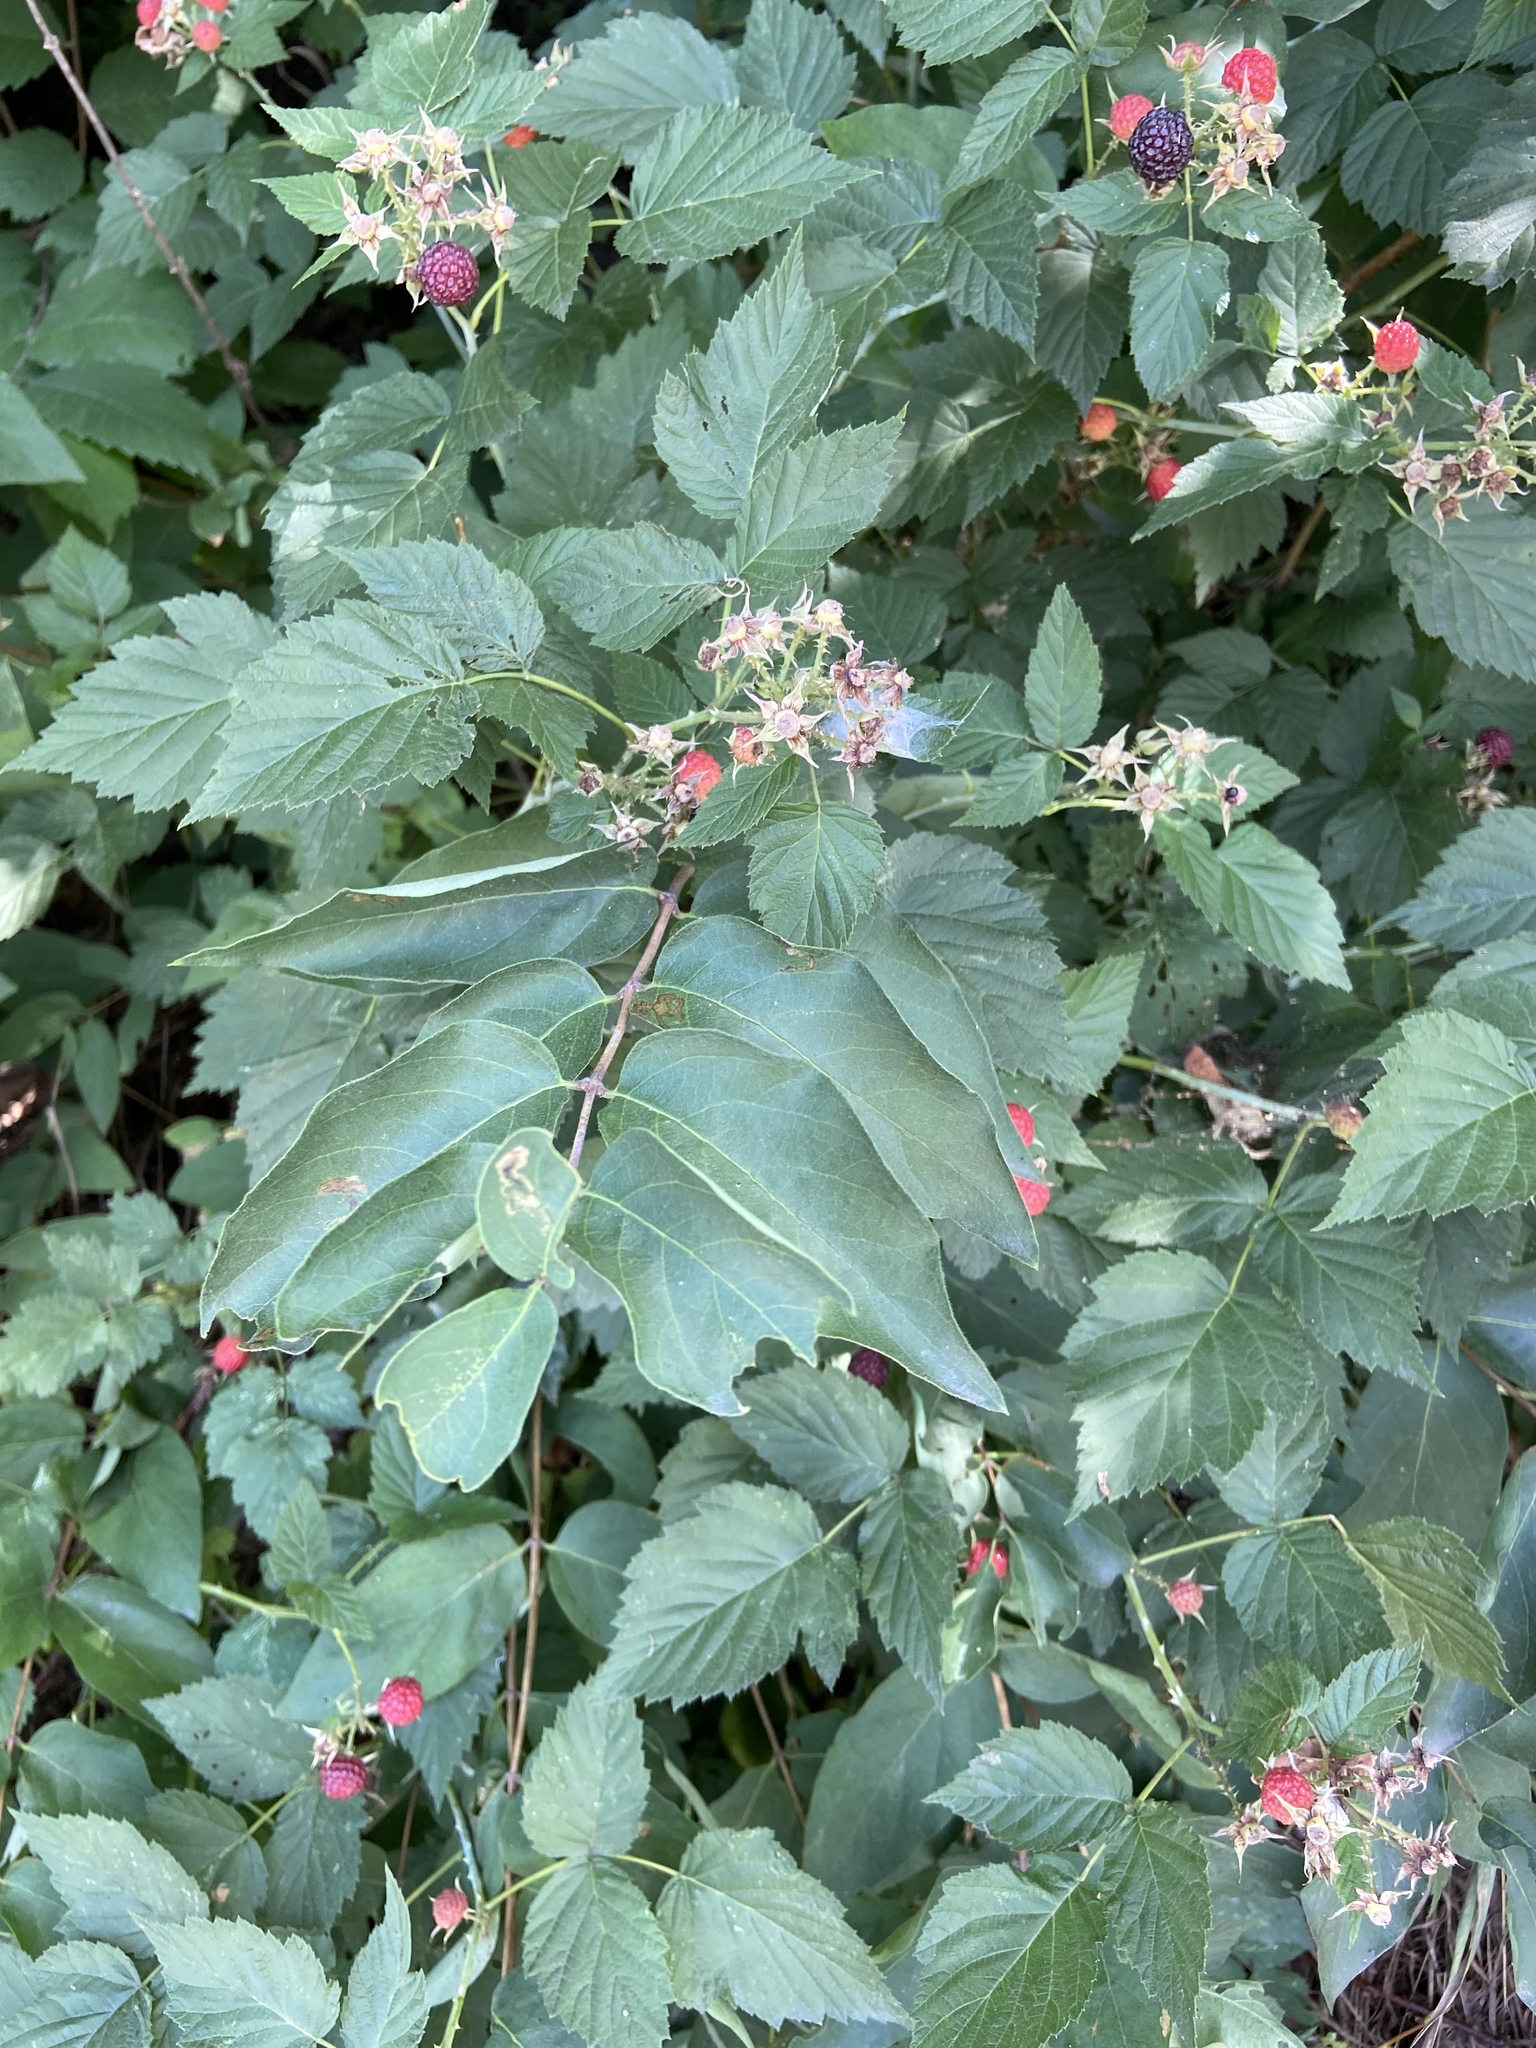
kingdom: Plantae
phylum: Tracheophyta
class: Magnoliopsida
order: Rosales
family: Rosaceae
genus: Rubus
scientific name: Rubus occidentalis
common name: Black raspberry
